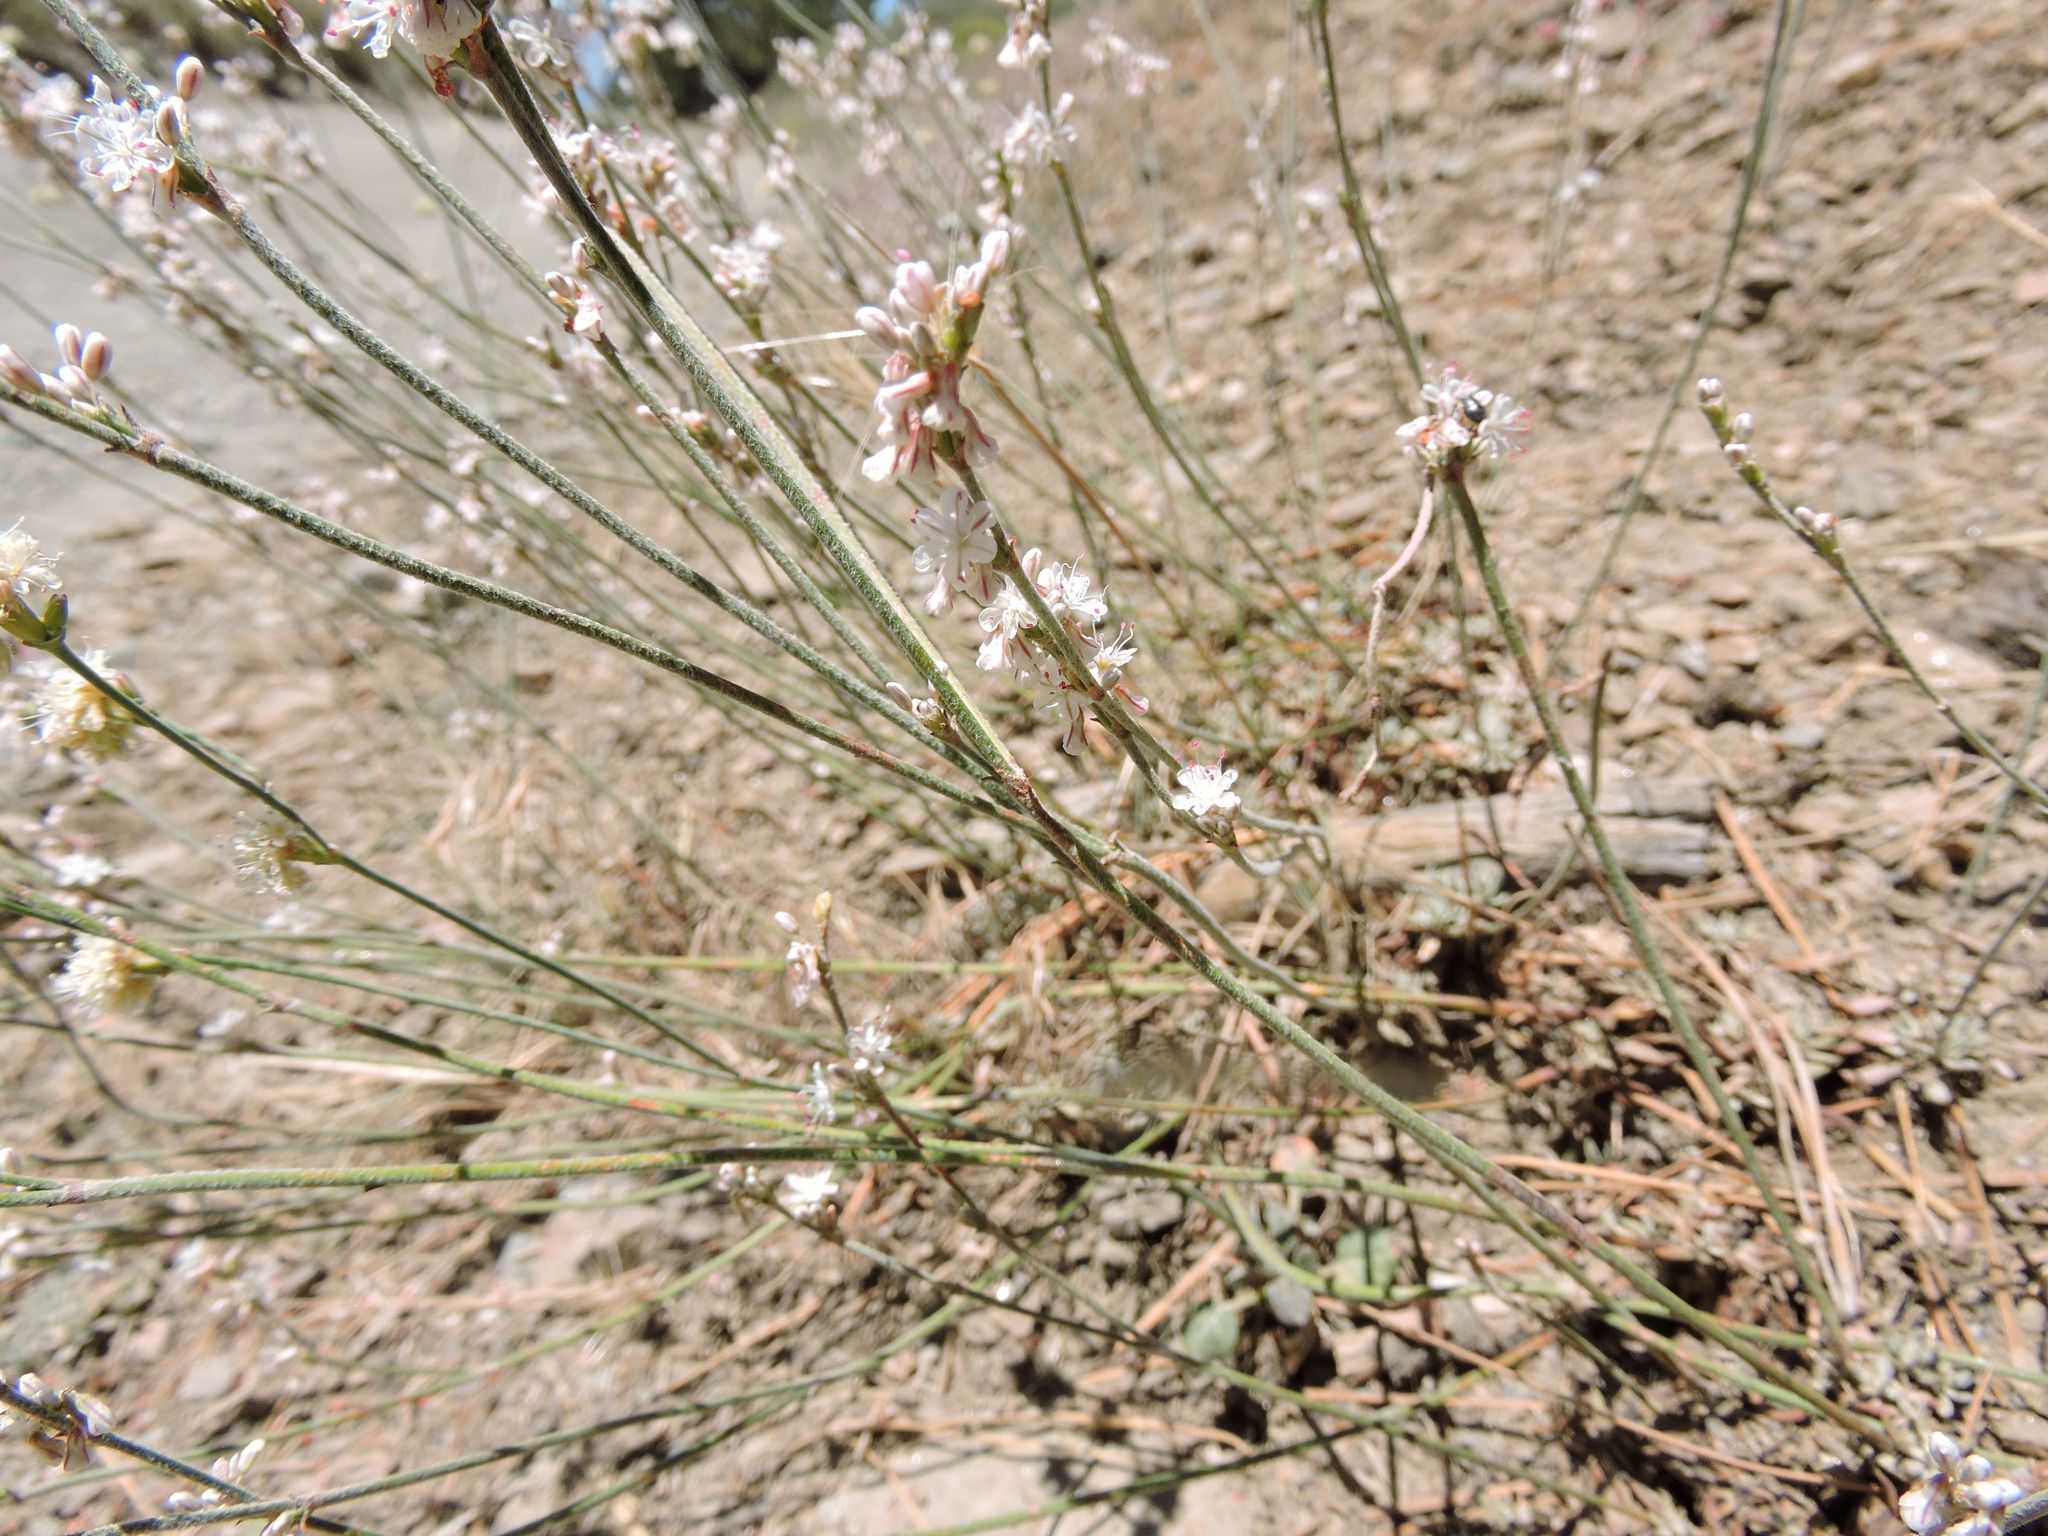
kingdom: Plantae
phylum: Tracheophyta
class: Magnoliopsida
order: Caryophyllales
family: Polygonaceae
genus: Eriogonum
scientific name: Eriogonum wrightii
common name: Bastard-sage
